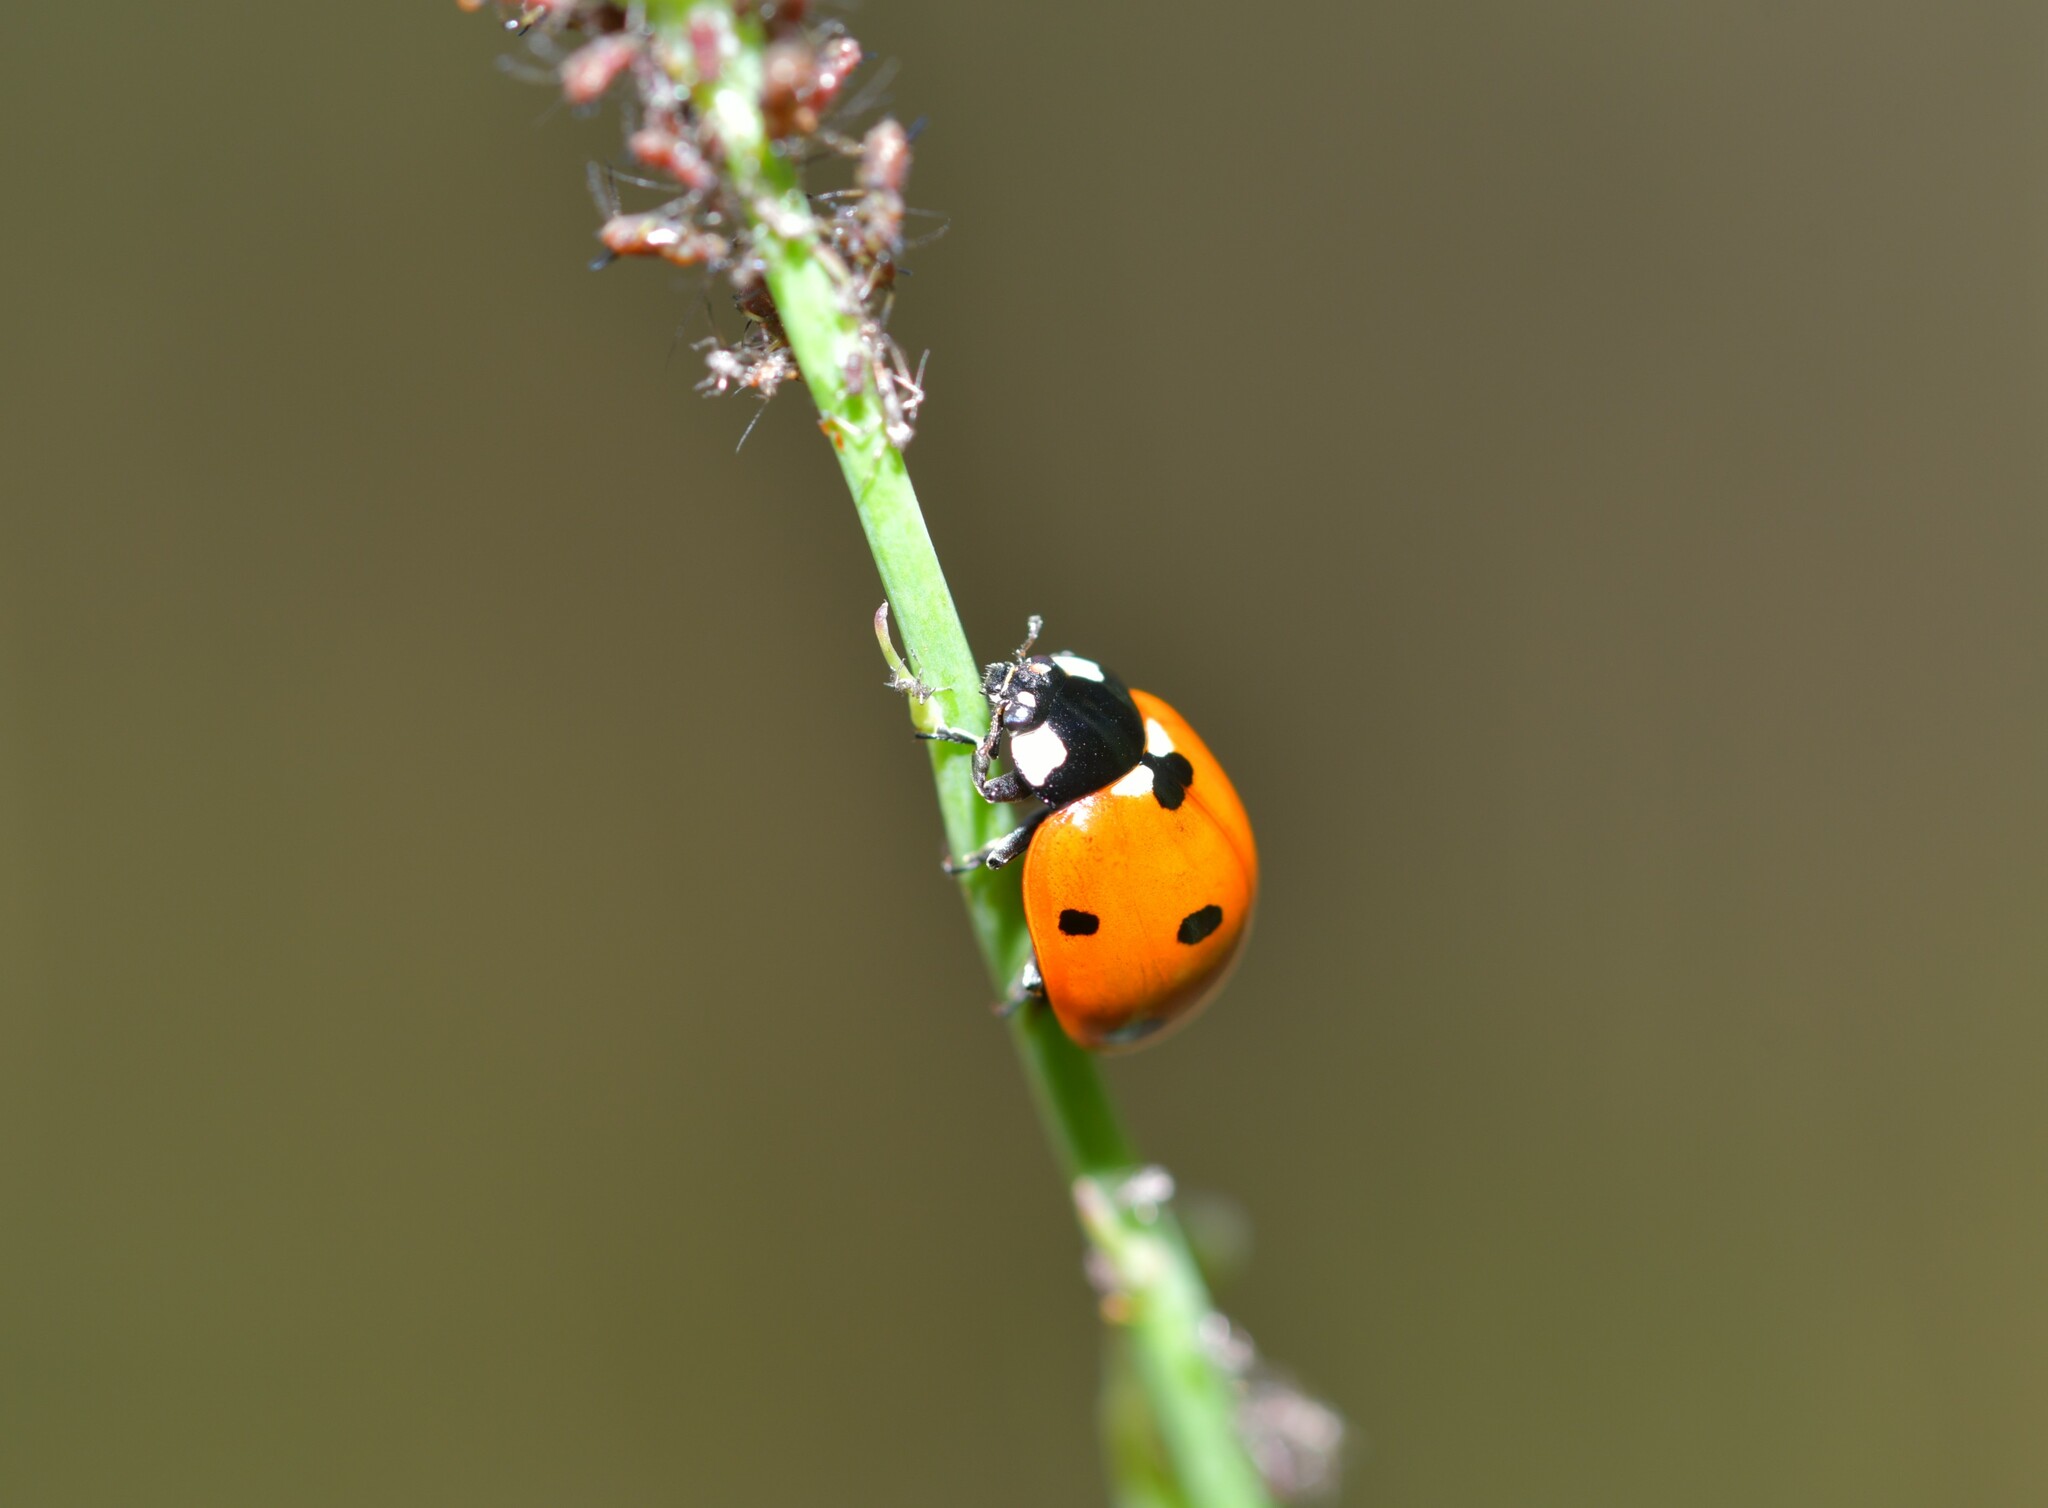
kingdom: Animalia
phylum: Arthropoda
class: Insecta
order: Coleoptera
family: Coccinellidae
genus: Coccinella
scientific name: Coccinella septempunctata
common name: Sevenspotted lady beetle
